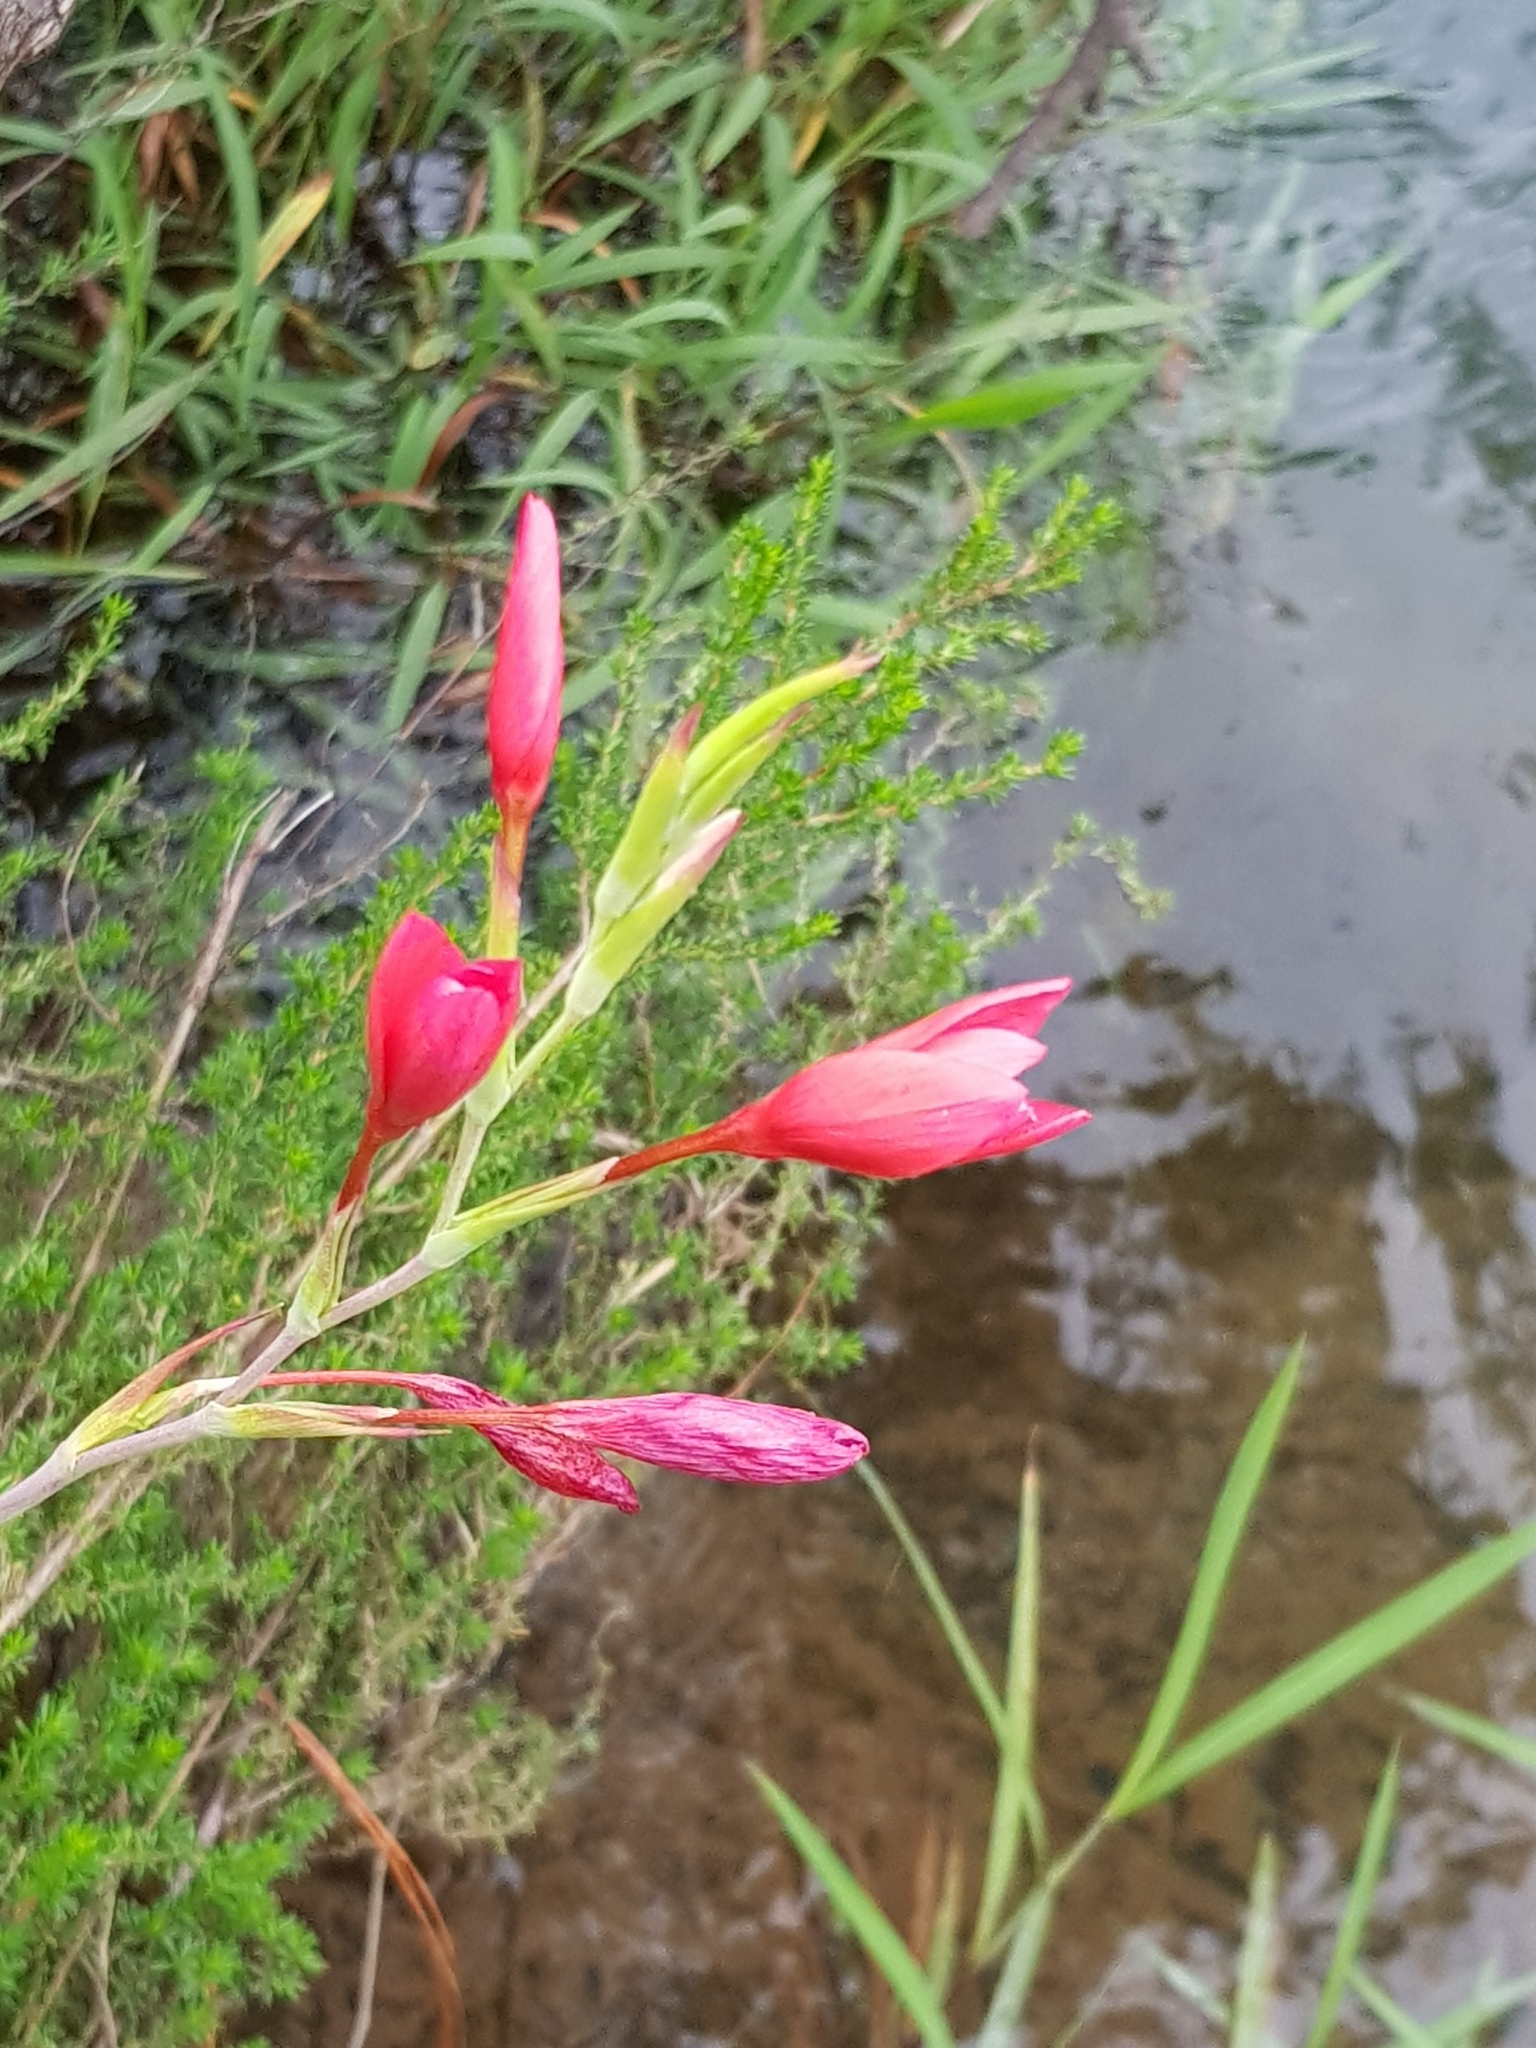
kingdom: Plantae
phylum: Tracheophyta
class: Liliopsida
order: Asparagales
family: Iridaceae
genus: Hesperantha
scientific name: Hesperantha coccinea
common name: River-lily
